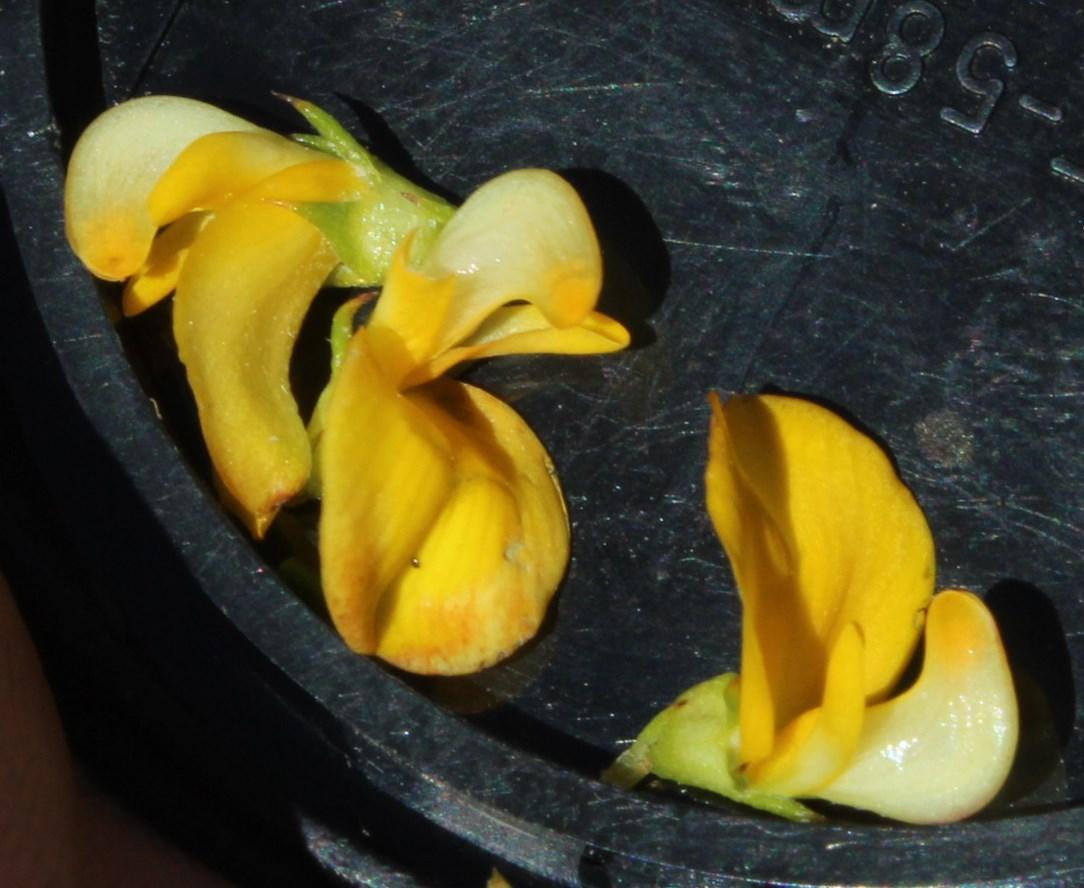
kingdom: Plantae
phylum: Tracheophyta
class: Magnoliopsida
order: Fabales
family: Fabaceae
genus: Aspalathus
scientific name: Aspalathus abietina
